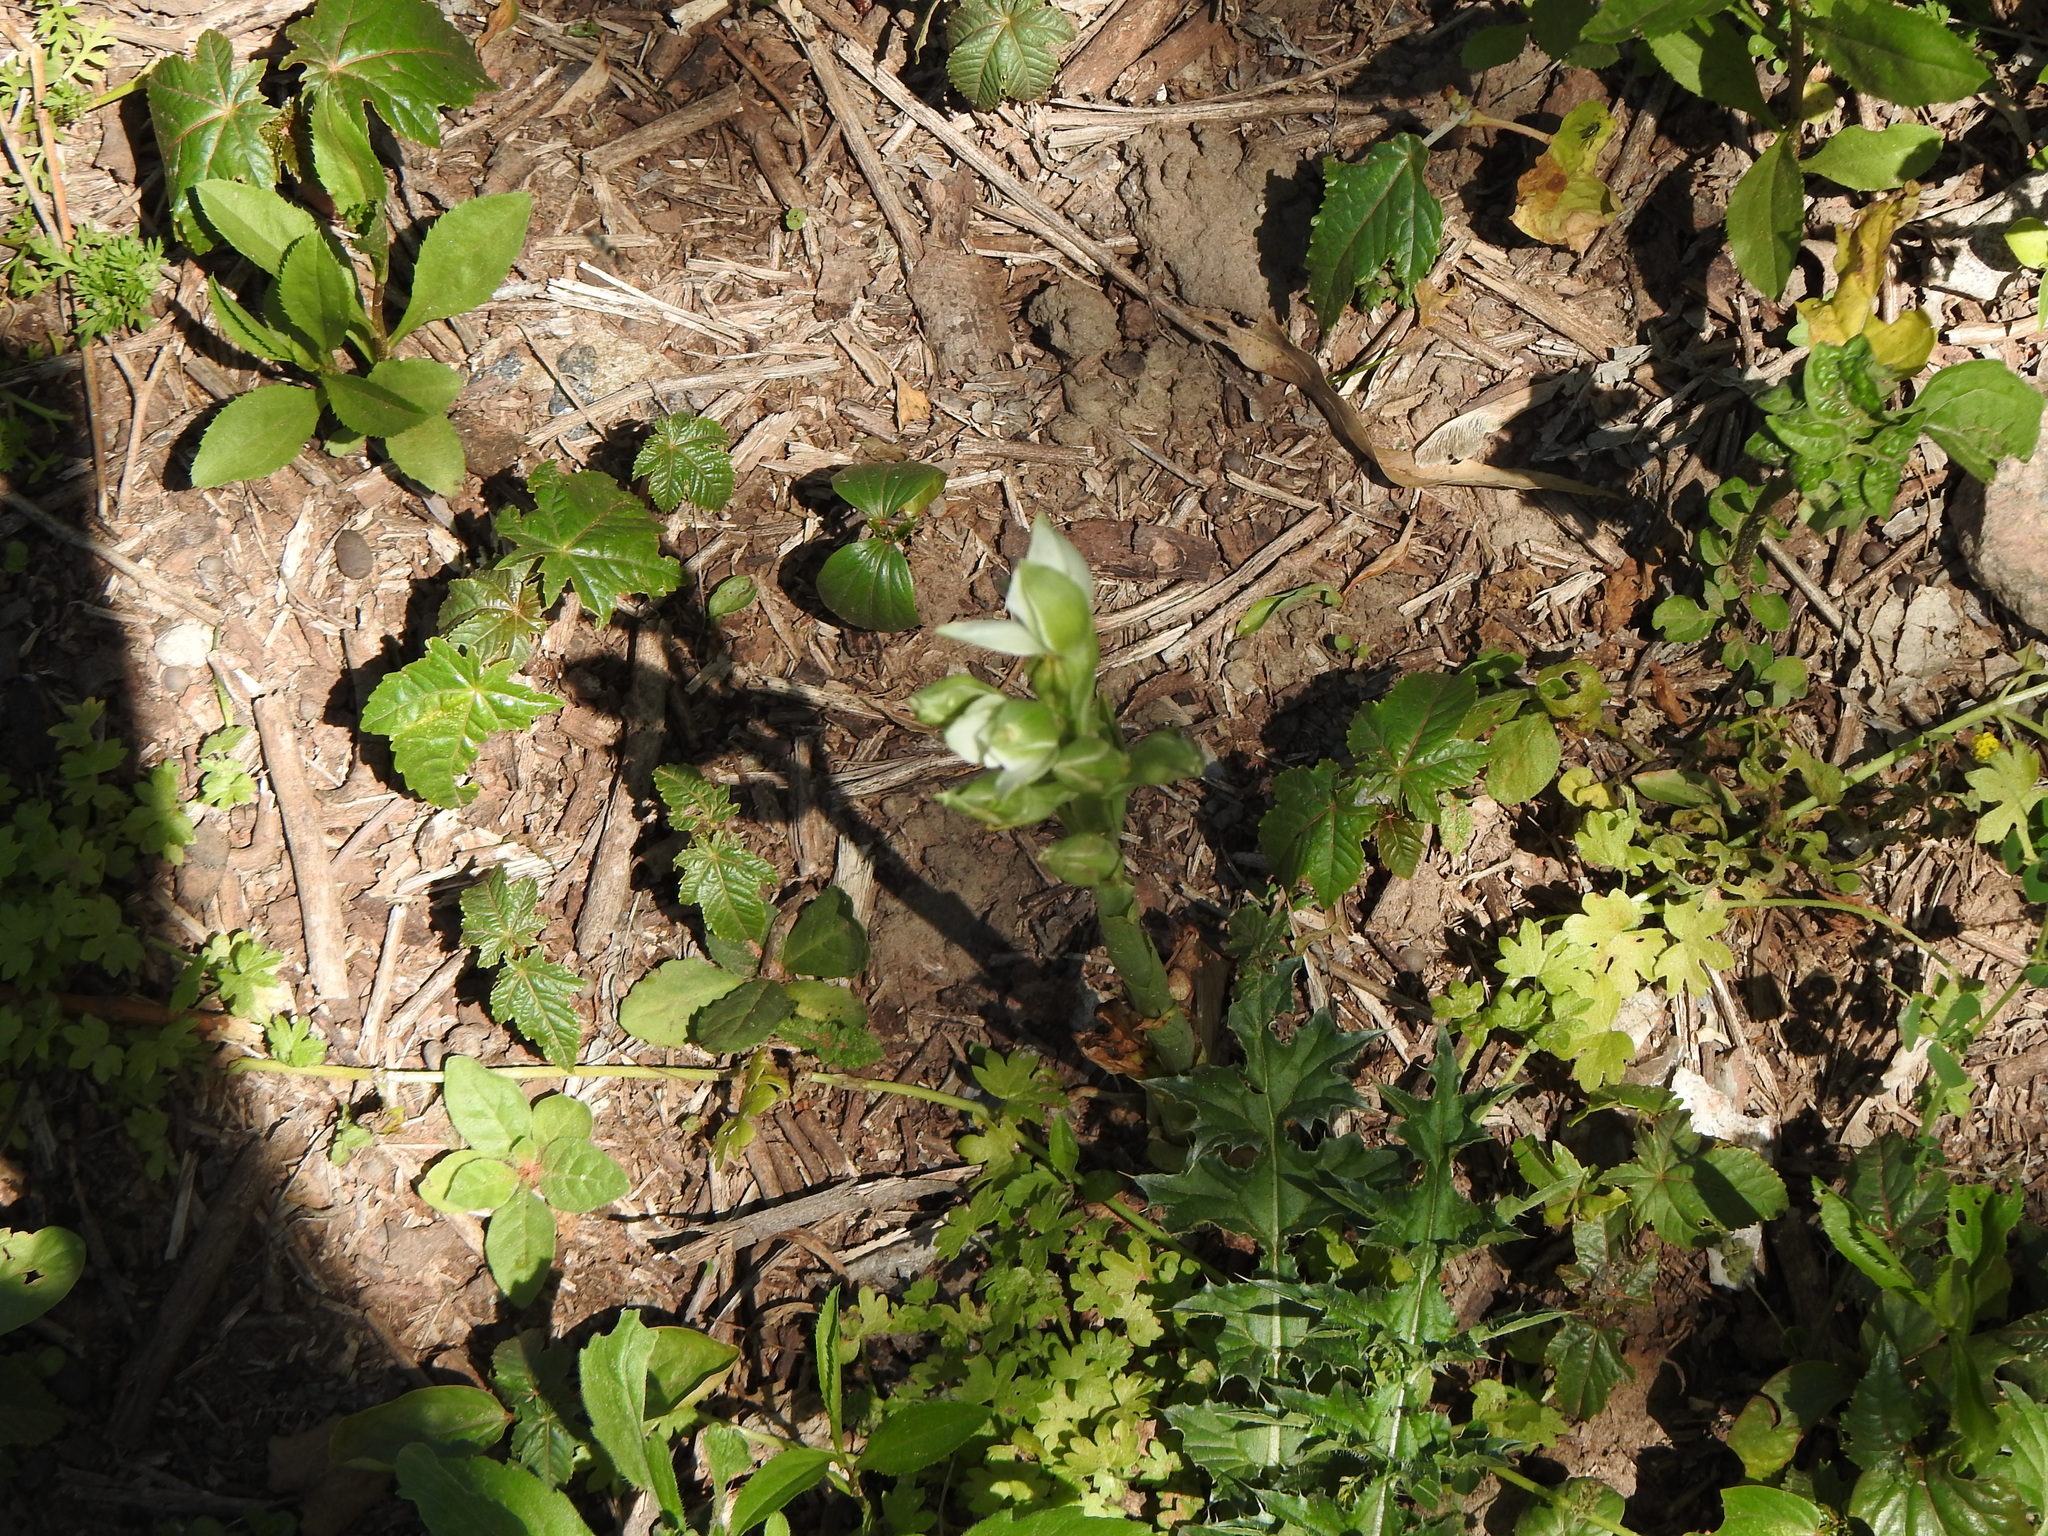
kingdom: Plantae
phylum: Tracheophyta
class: Liliopsida
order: Asparagales
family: Orchidaceae
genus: Chloraea
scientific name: Chloraea membranacea
